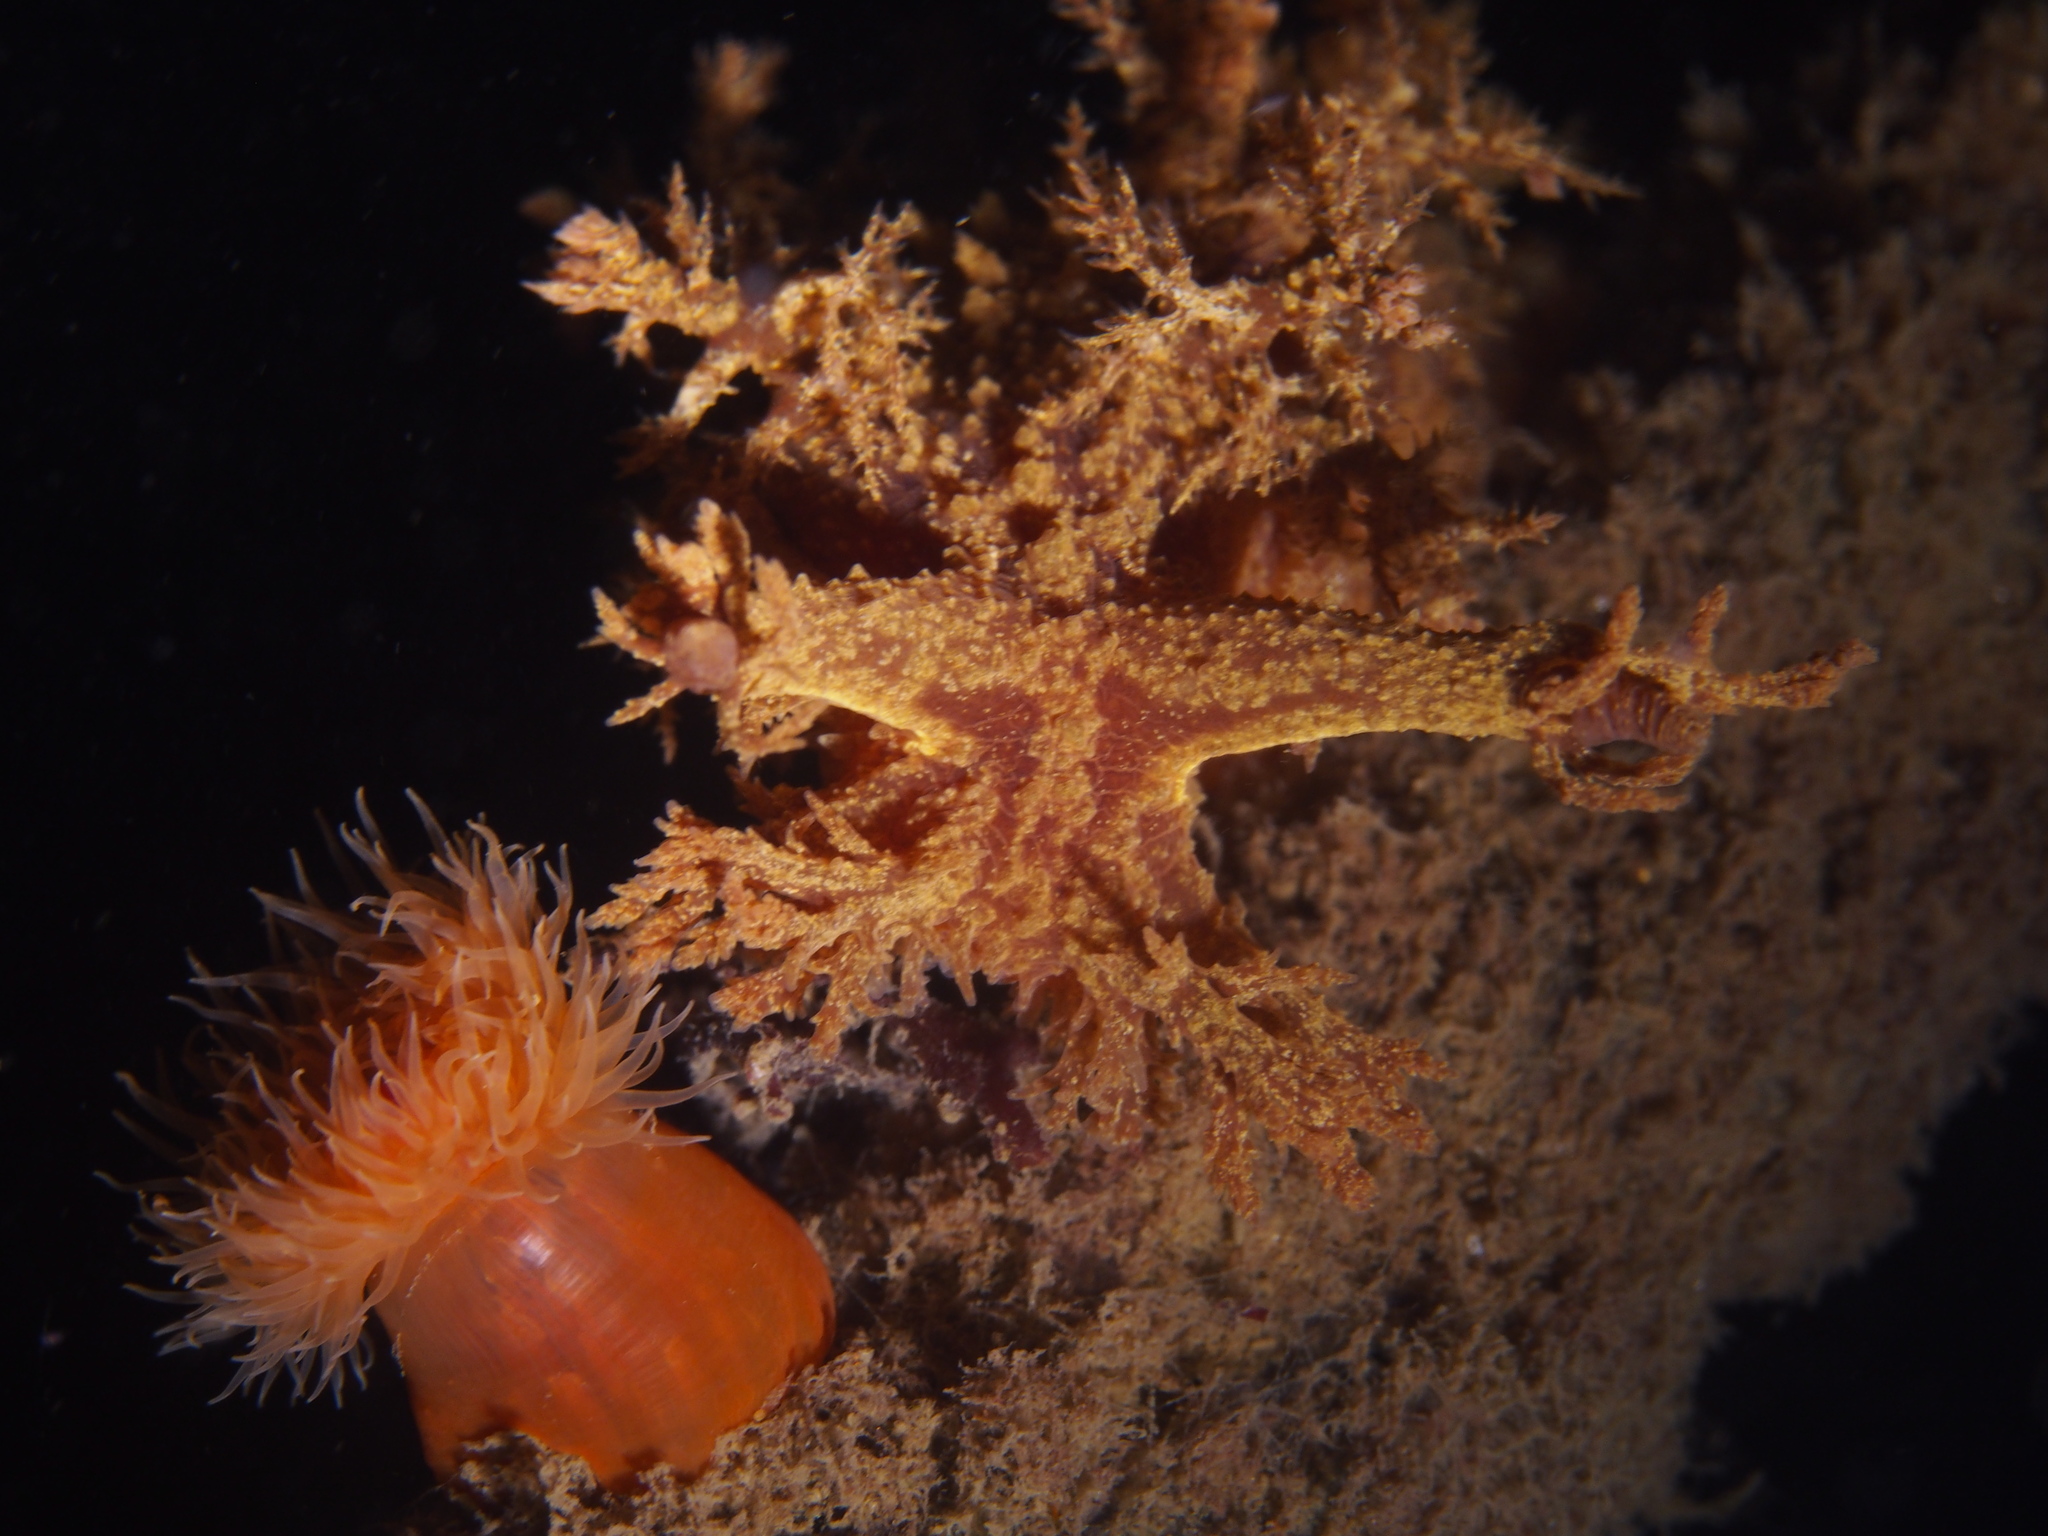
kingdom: Animalia
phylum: Mollusca
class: Gastropoda
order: Nudibranchia
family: Dendronotidae
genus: Dendronotus
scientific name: Dendronotus europaeus
